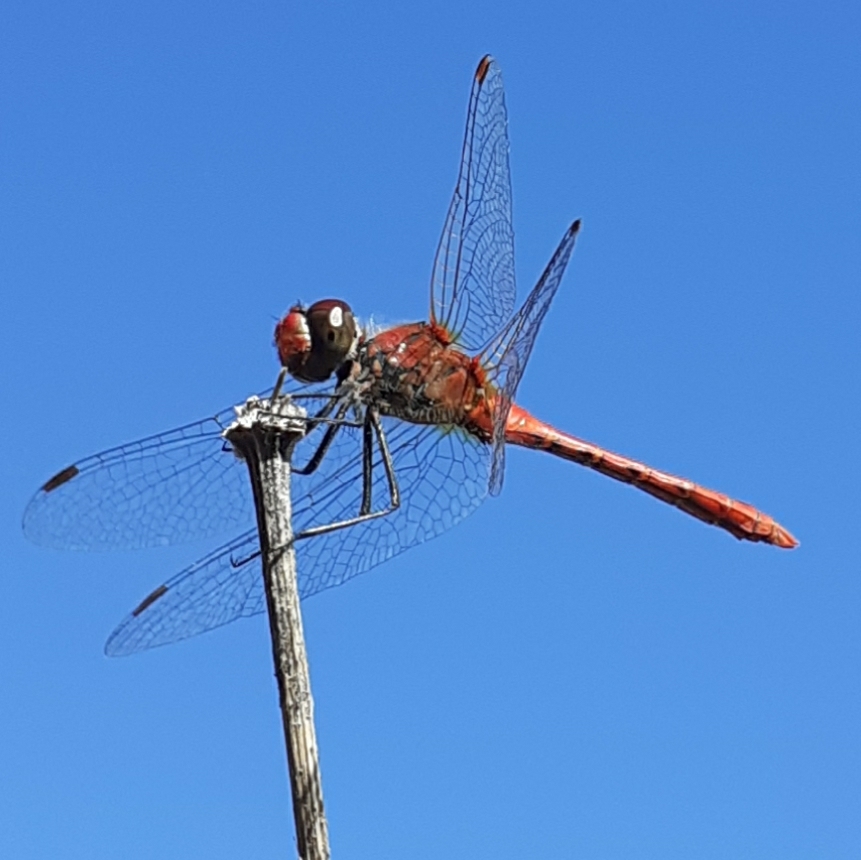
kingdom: Animalia
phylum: Arthropoda
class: Insecta
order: Odonata
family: Libellulidae
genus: Sympetrum
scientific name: Sympetrum sanguineum
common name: Ruddy darter
